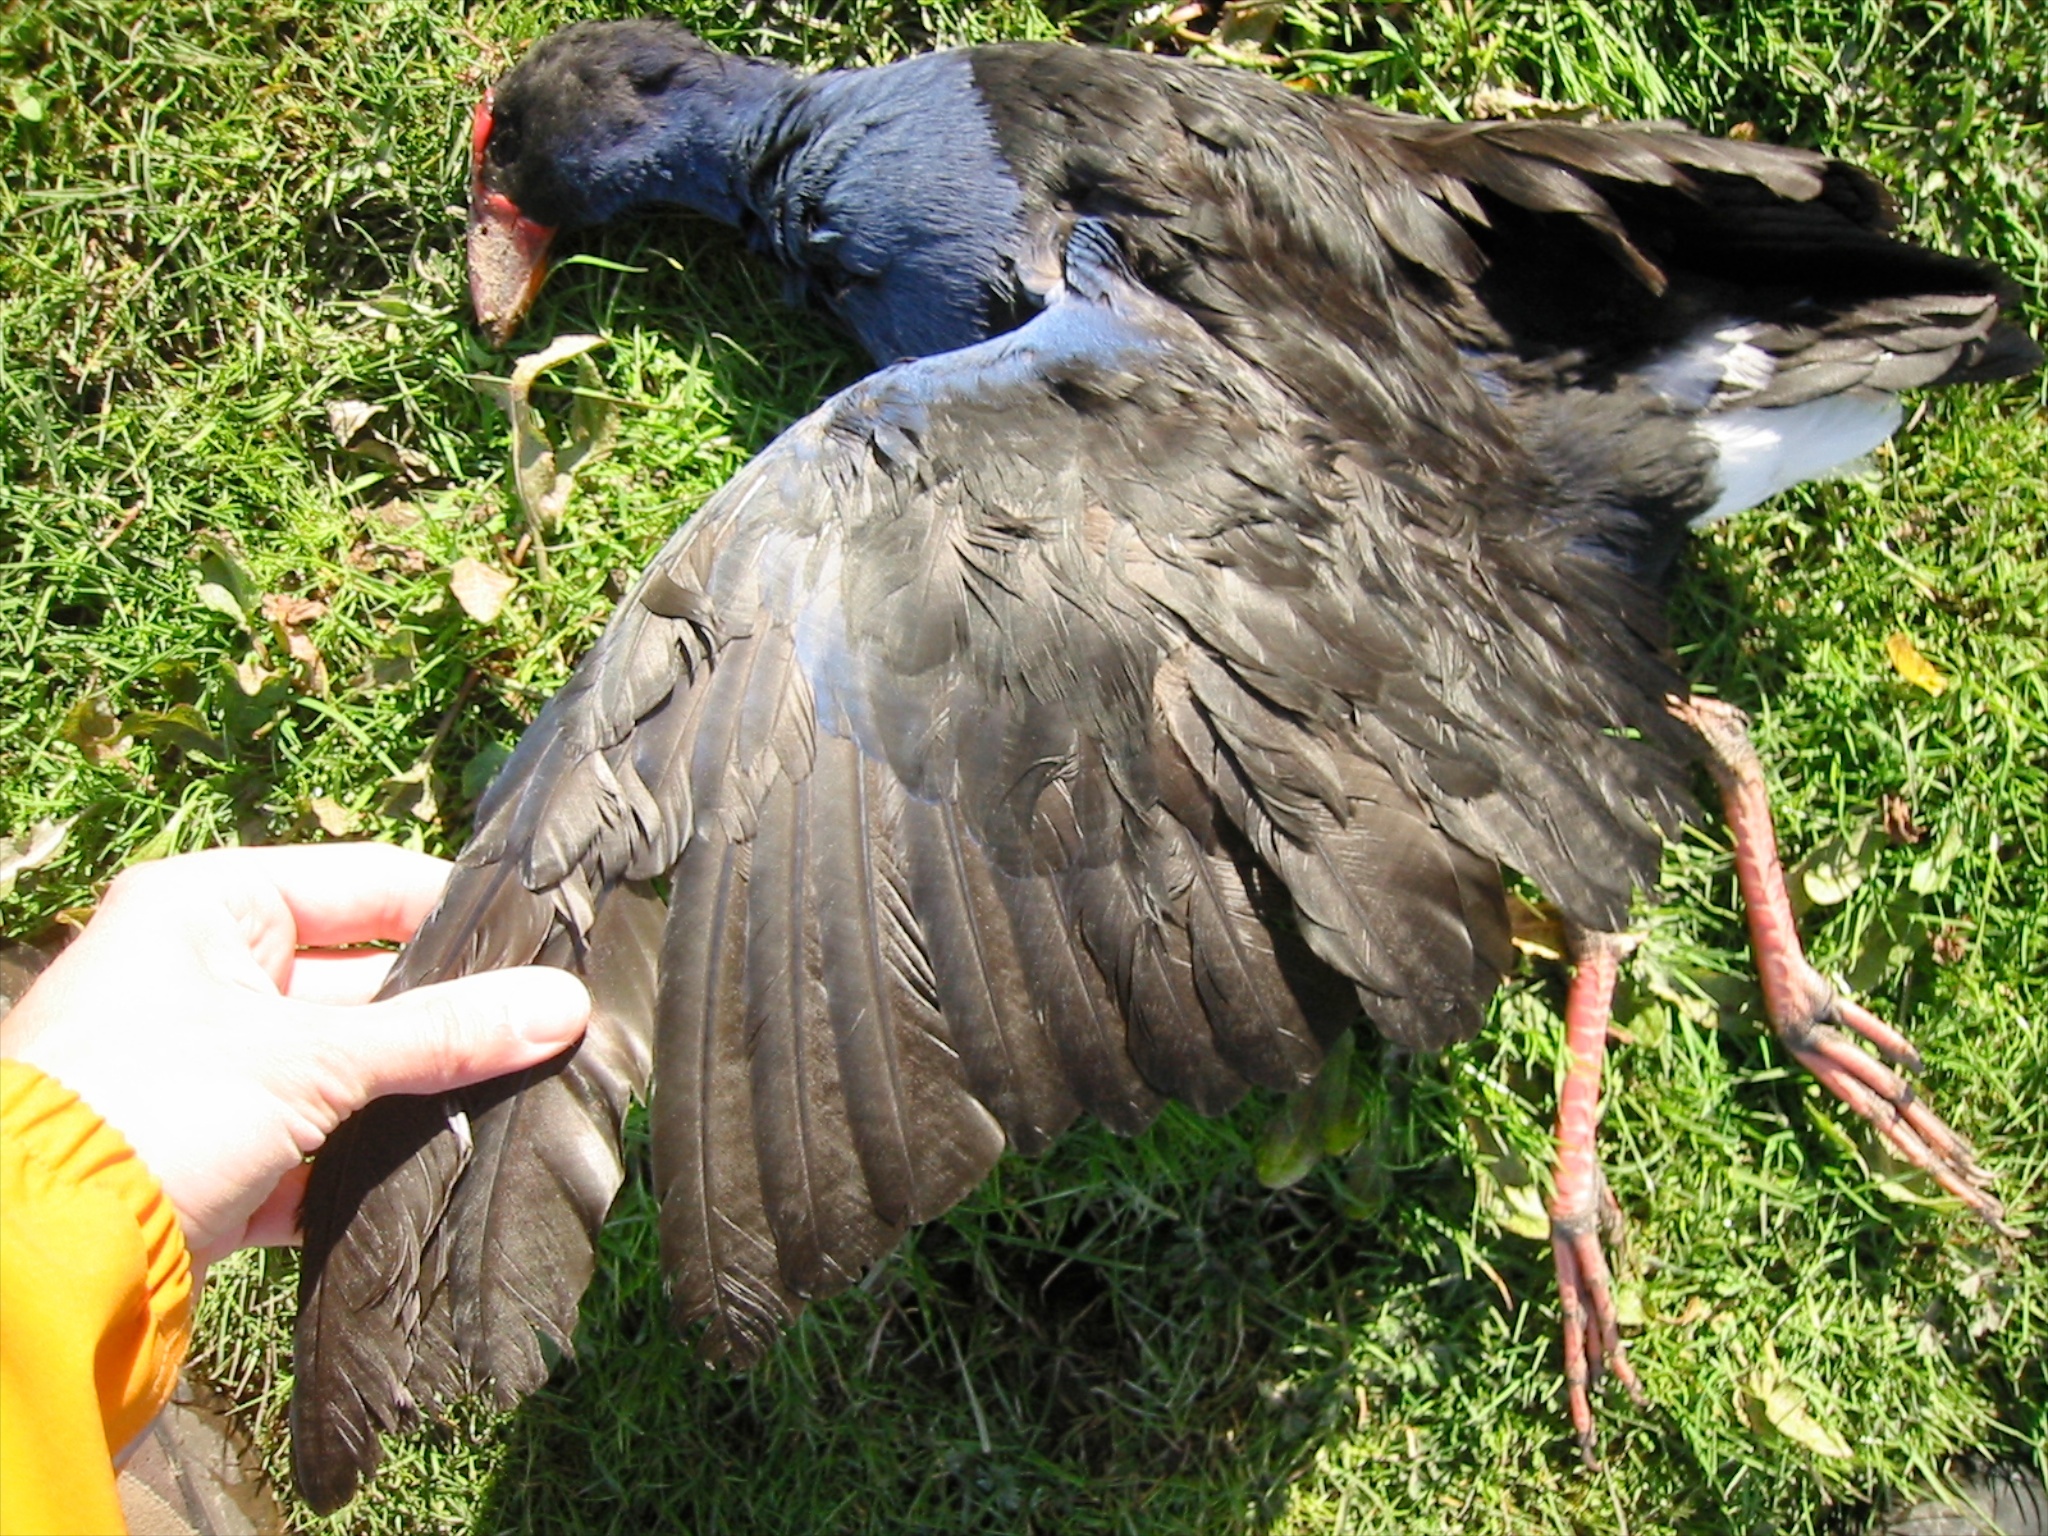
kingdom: Animalia
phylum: Chordata
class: Aves
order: Gruiformes
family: Rallidae
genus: Porphyrio
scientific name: Porphyrio melanotus
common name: Australasian swamphen
